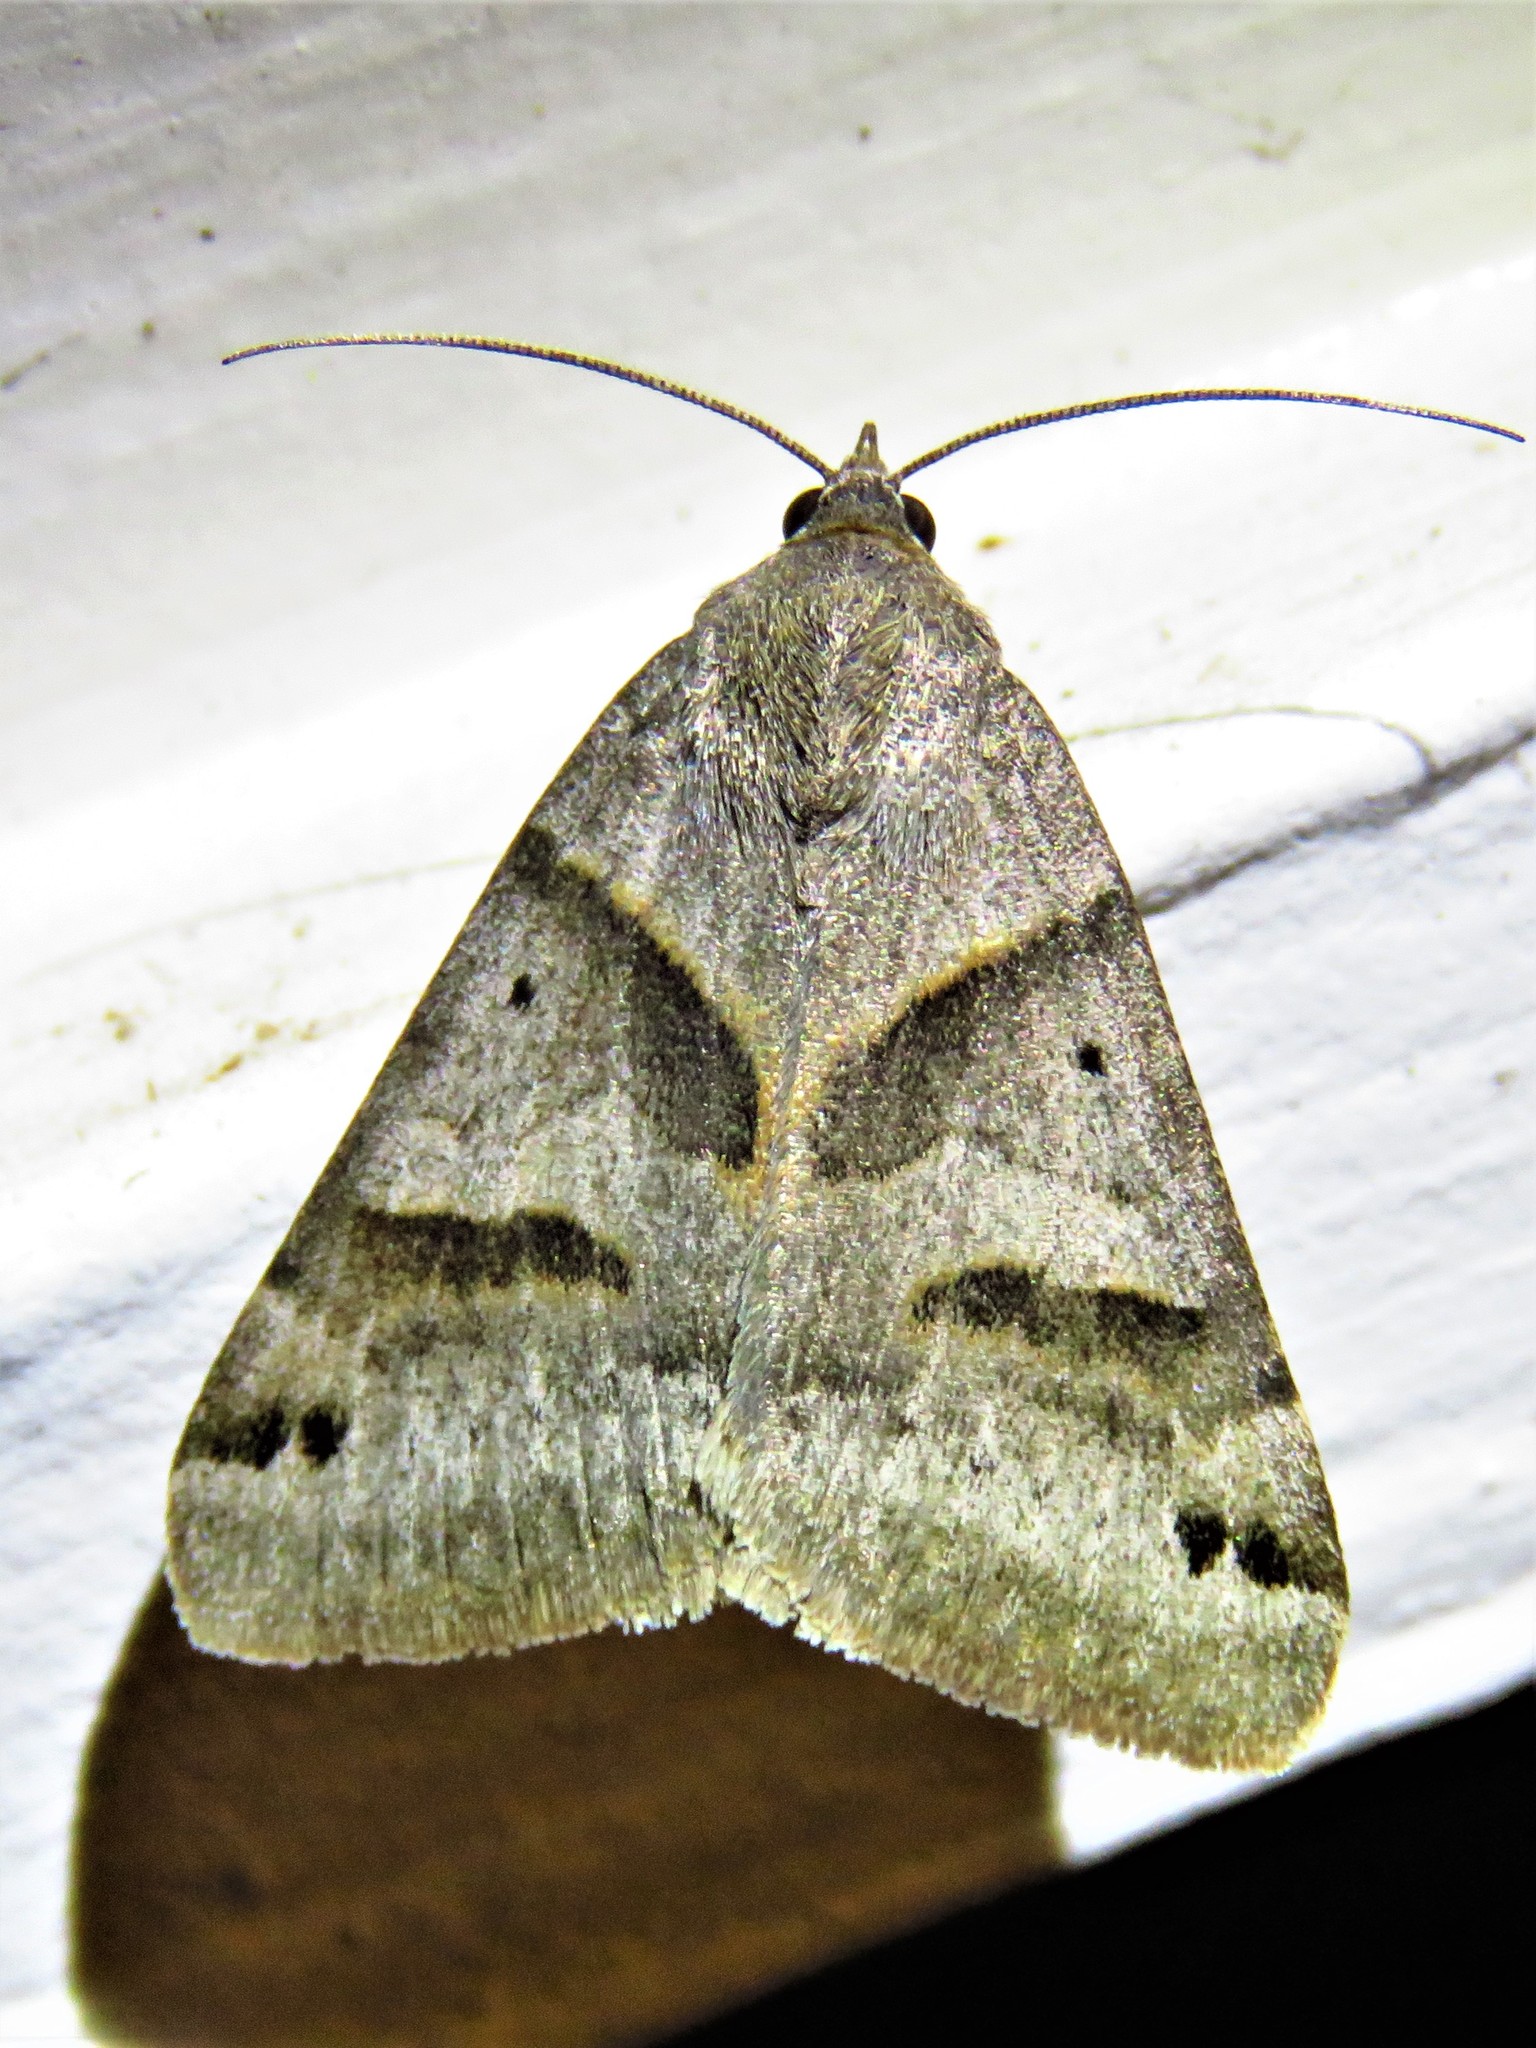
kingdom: Animalia
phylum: Arthropoda
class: Insecta
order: Lepidoptera
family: Erebidae
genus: Caenurgina
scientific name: Caenurgina erechtea
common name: Forage looper moth
